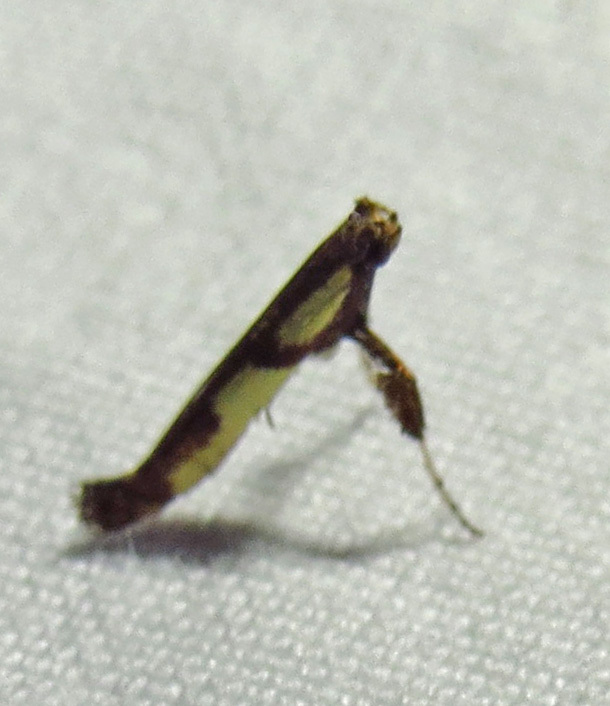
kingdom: Animalia
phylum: Arthropoda
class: Insecta
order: Lepidoptera
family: Gracillariidae
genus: Caloptilia
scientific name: Caloptilia blandella
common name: Walnut caloptilia moth
